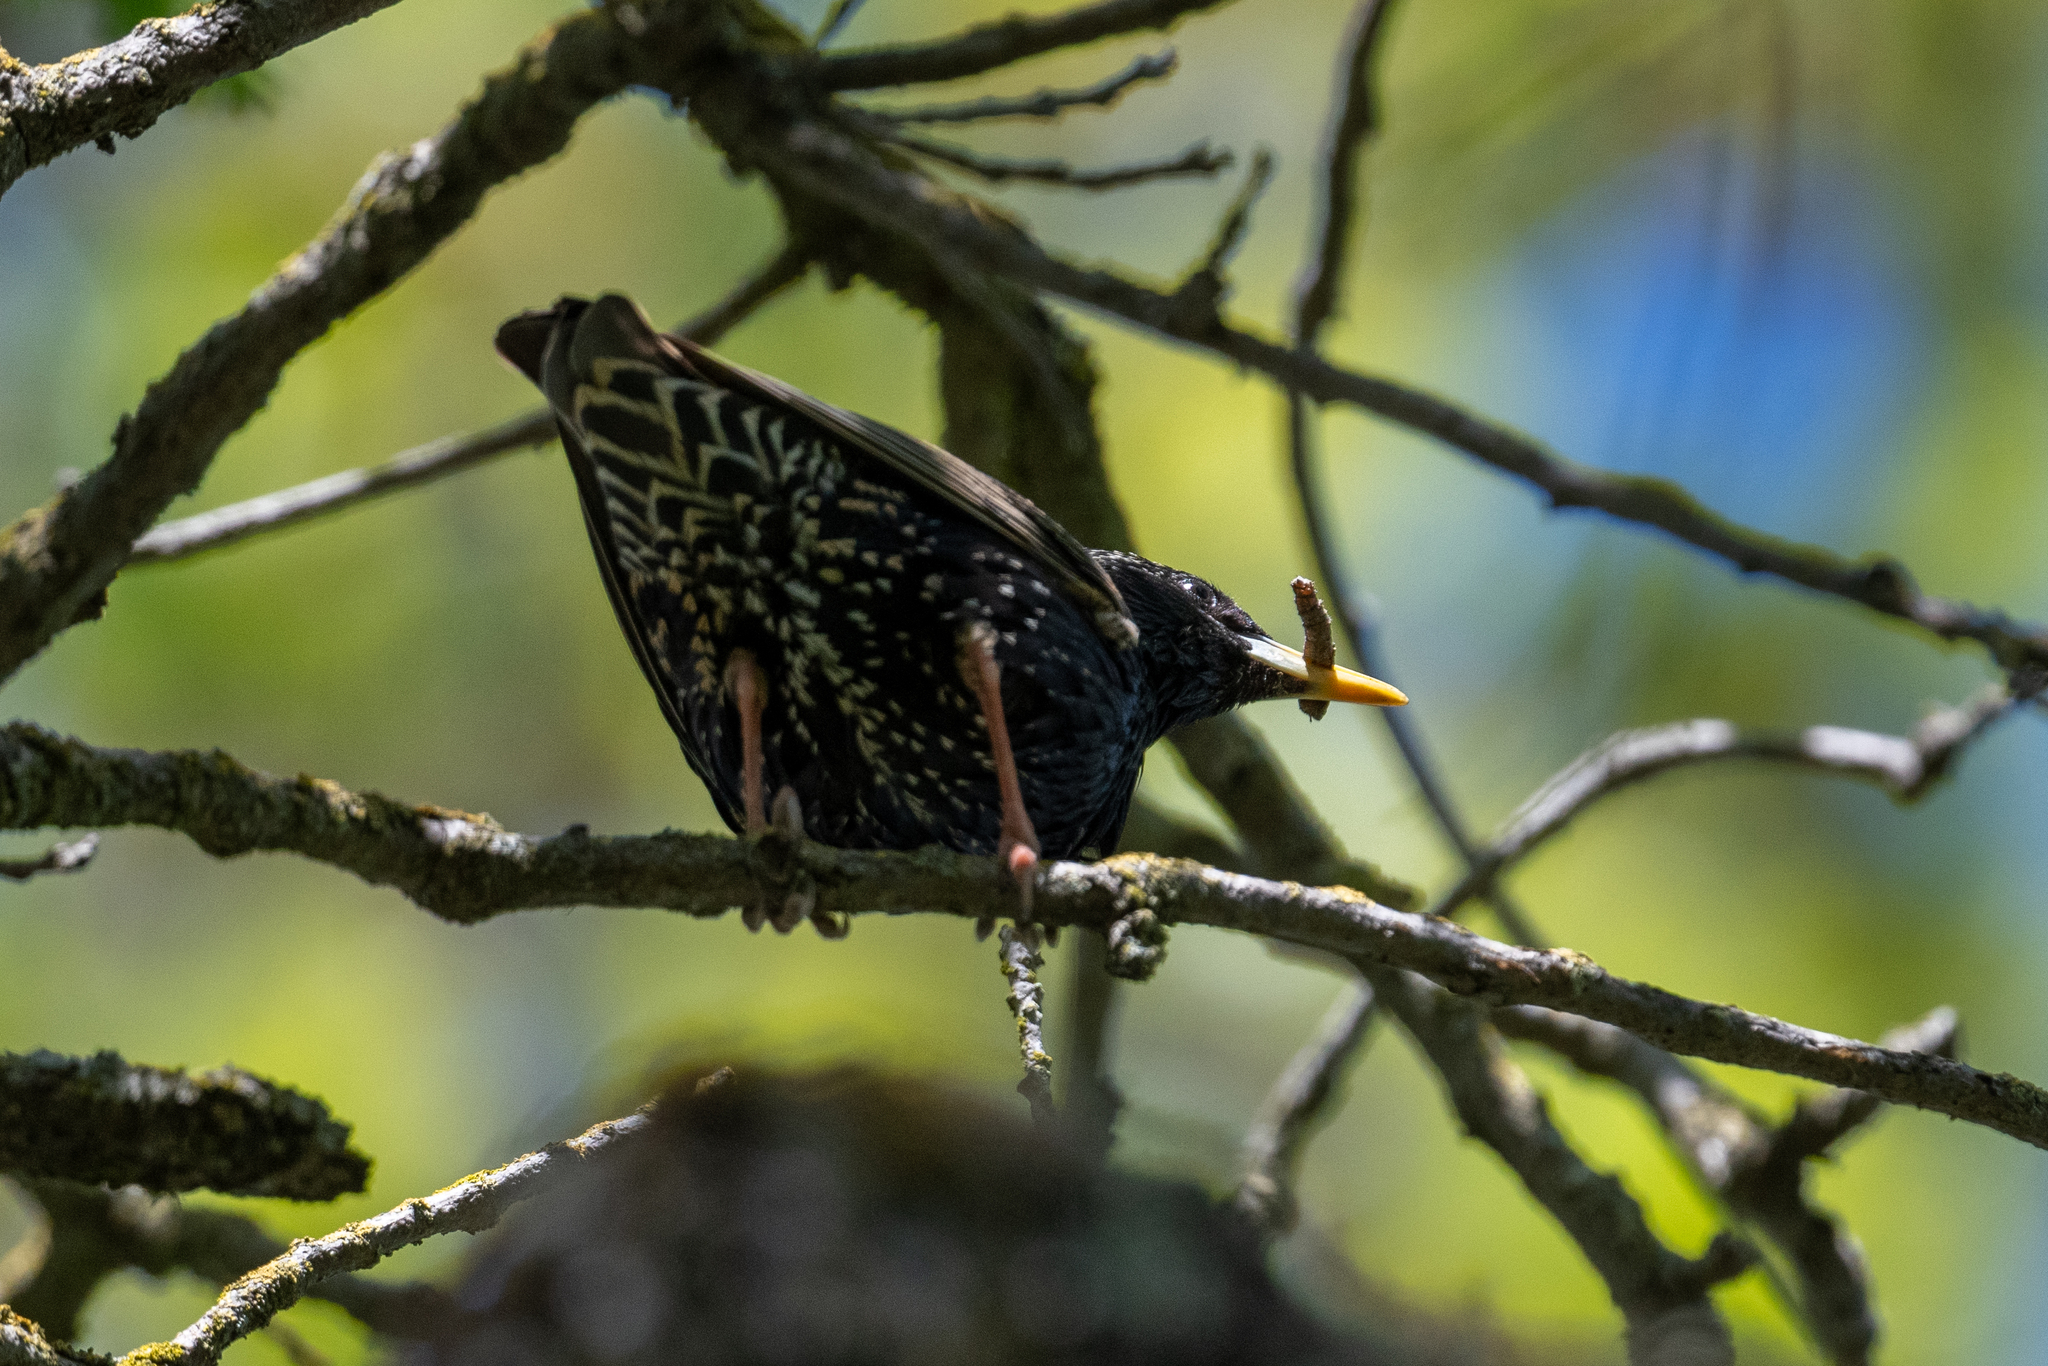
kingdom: Animalia
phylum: Chordata
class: Aves
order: Passeriformes
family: Sturnidae
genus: Sturnus
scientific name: Sturnus vulgaris
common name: Common starling
